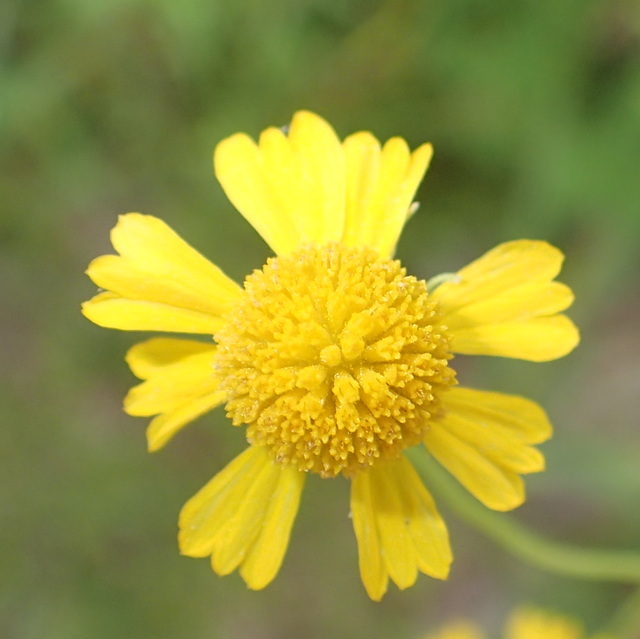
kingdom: Plantae
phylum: Tracheophyta
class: Magnoliopsida
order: Asterales
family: Asteraceae
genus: Helenium
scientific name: Helenium amarum
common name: Bitter sneezeweed
